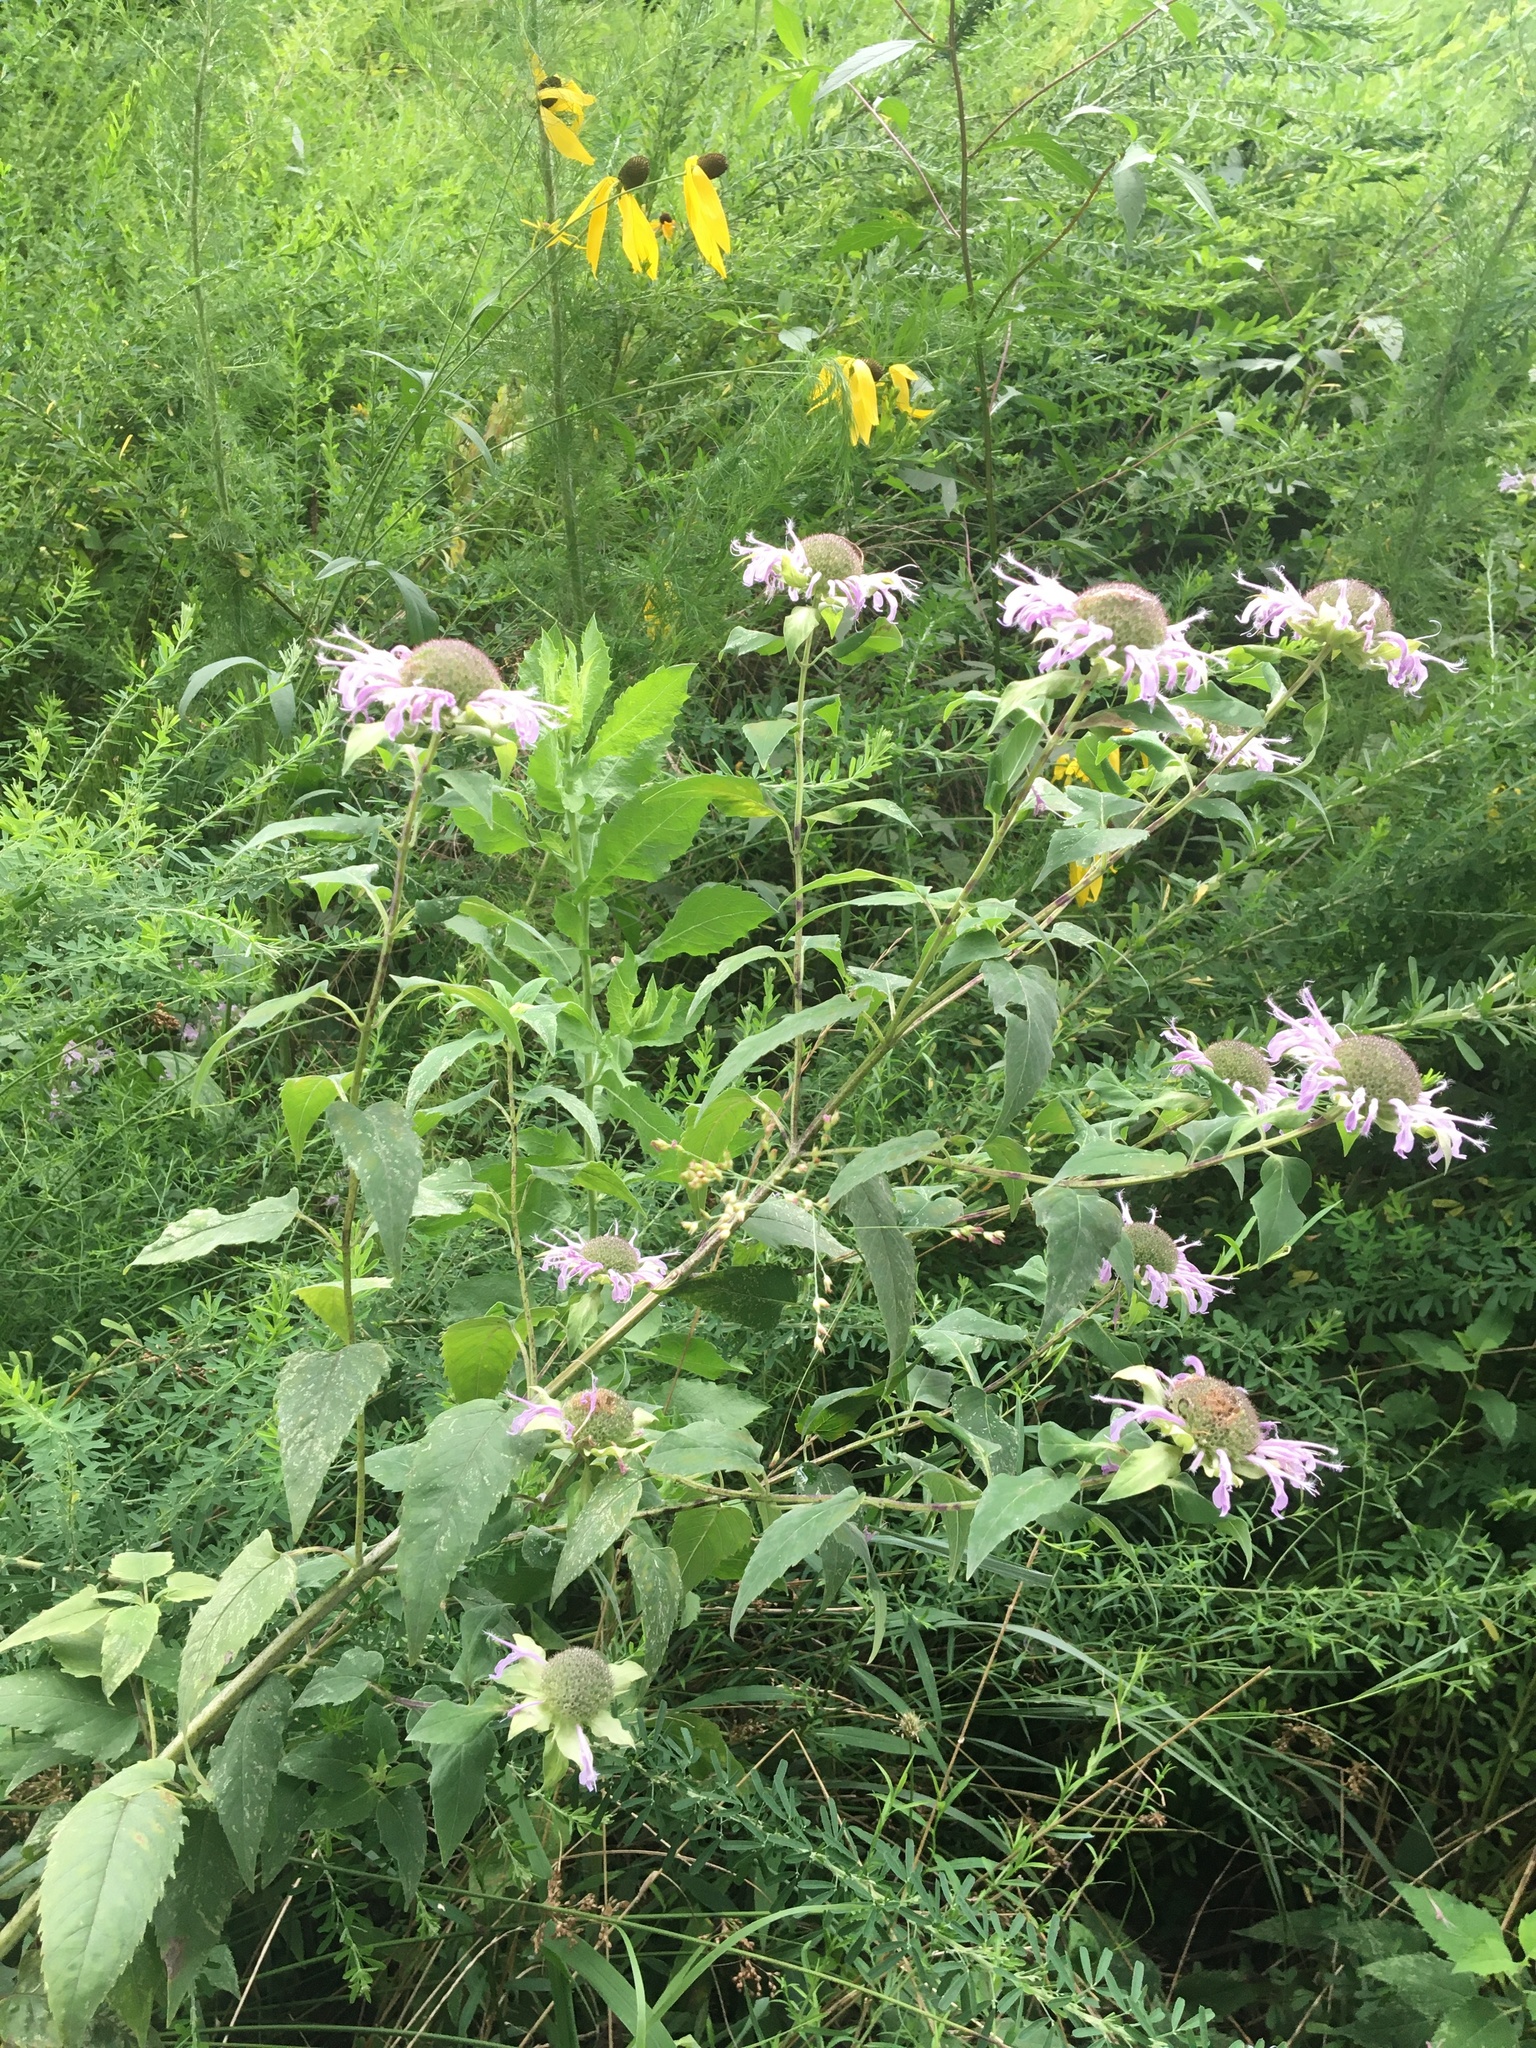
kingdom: Plantae
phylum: Tracheophyta
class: Magnoliopsida
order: Lamiales
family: Lamiaceae
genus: Monarda
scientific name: Monarda fistulosa
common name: Purple beebalm
